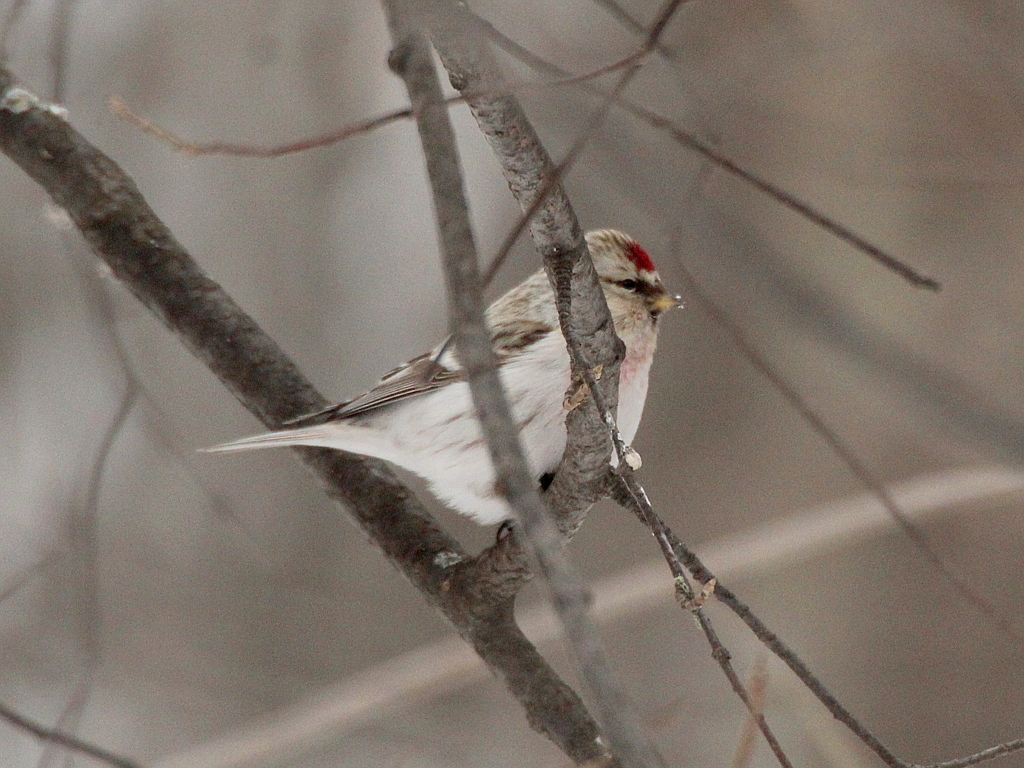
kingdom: Animalia
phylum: Chordata
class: Aves
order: Passeriformes
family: Fringillidae
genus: Acanthis
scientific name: Acanthis hornemanni
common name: Arctic redpoll
